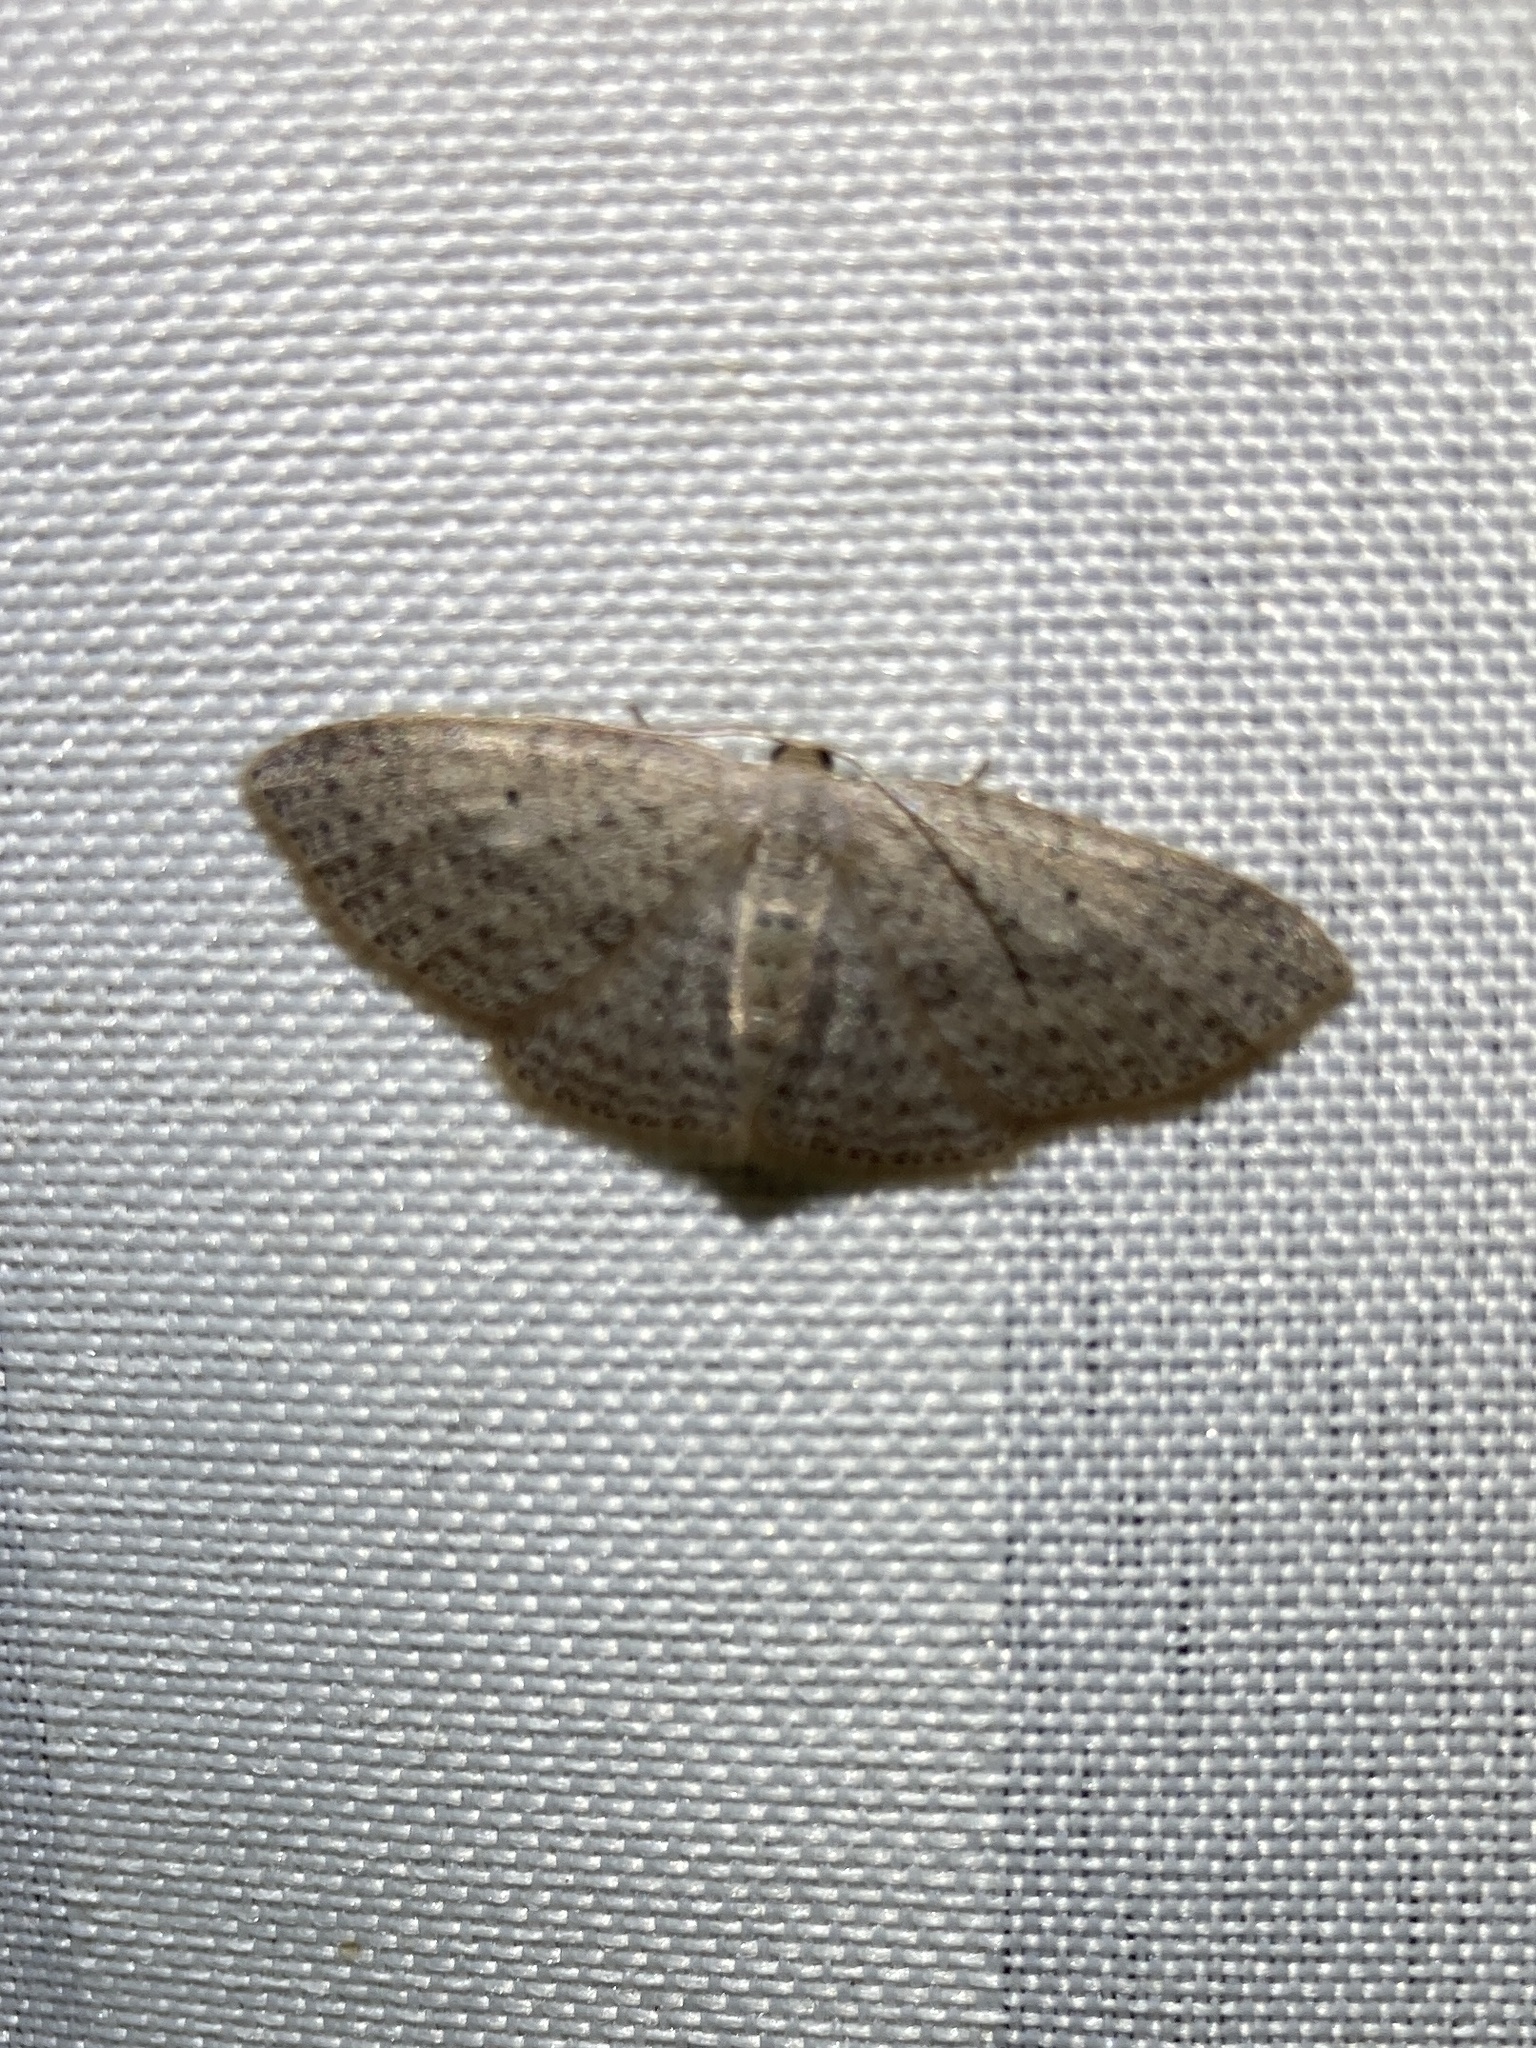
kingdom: Animalia
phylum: Arthropoda
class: Insecta
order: Lepidoptera
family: Geometridae
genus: Poecilasthena
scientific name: Poecilasthena schistaria
